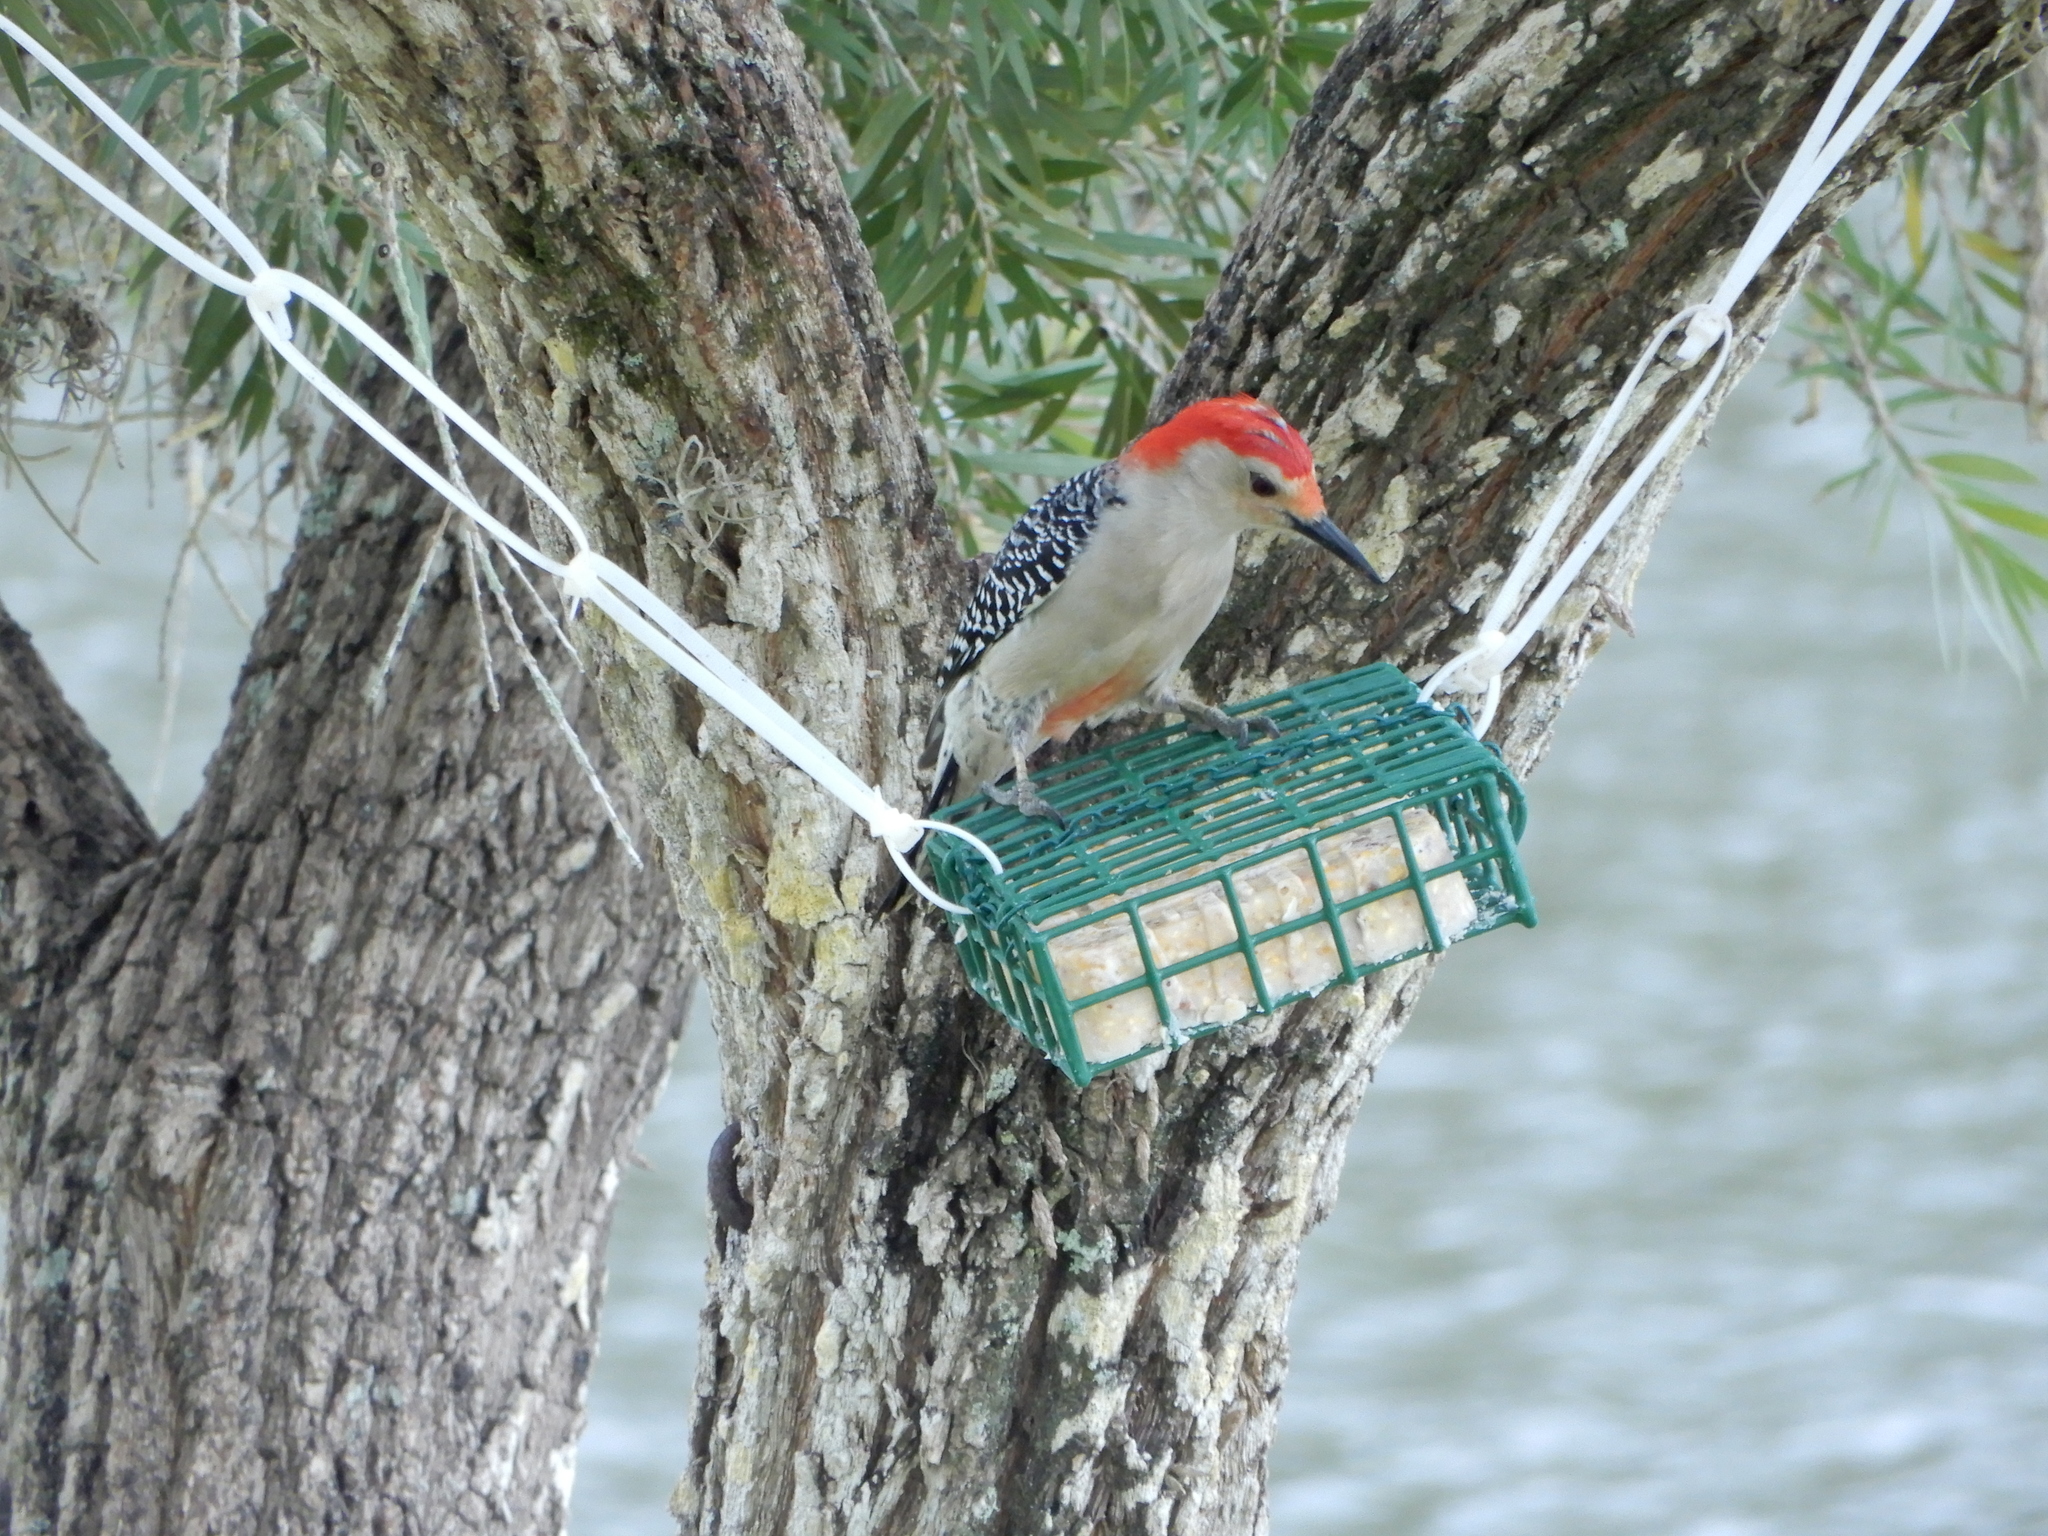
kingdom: Animalia
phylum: Chordata
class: Aves
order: Piciformes
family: Picidae
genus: Melanerpes
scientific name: Melanerpes carolinus
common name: Red-bellied woodpecker
